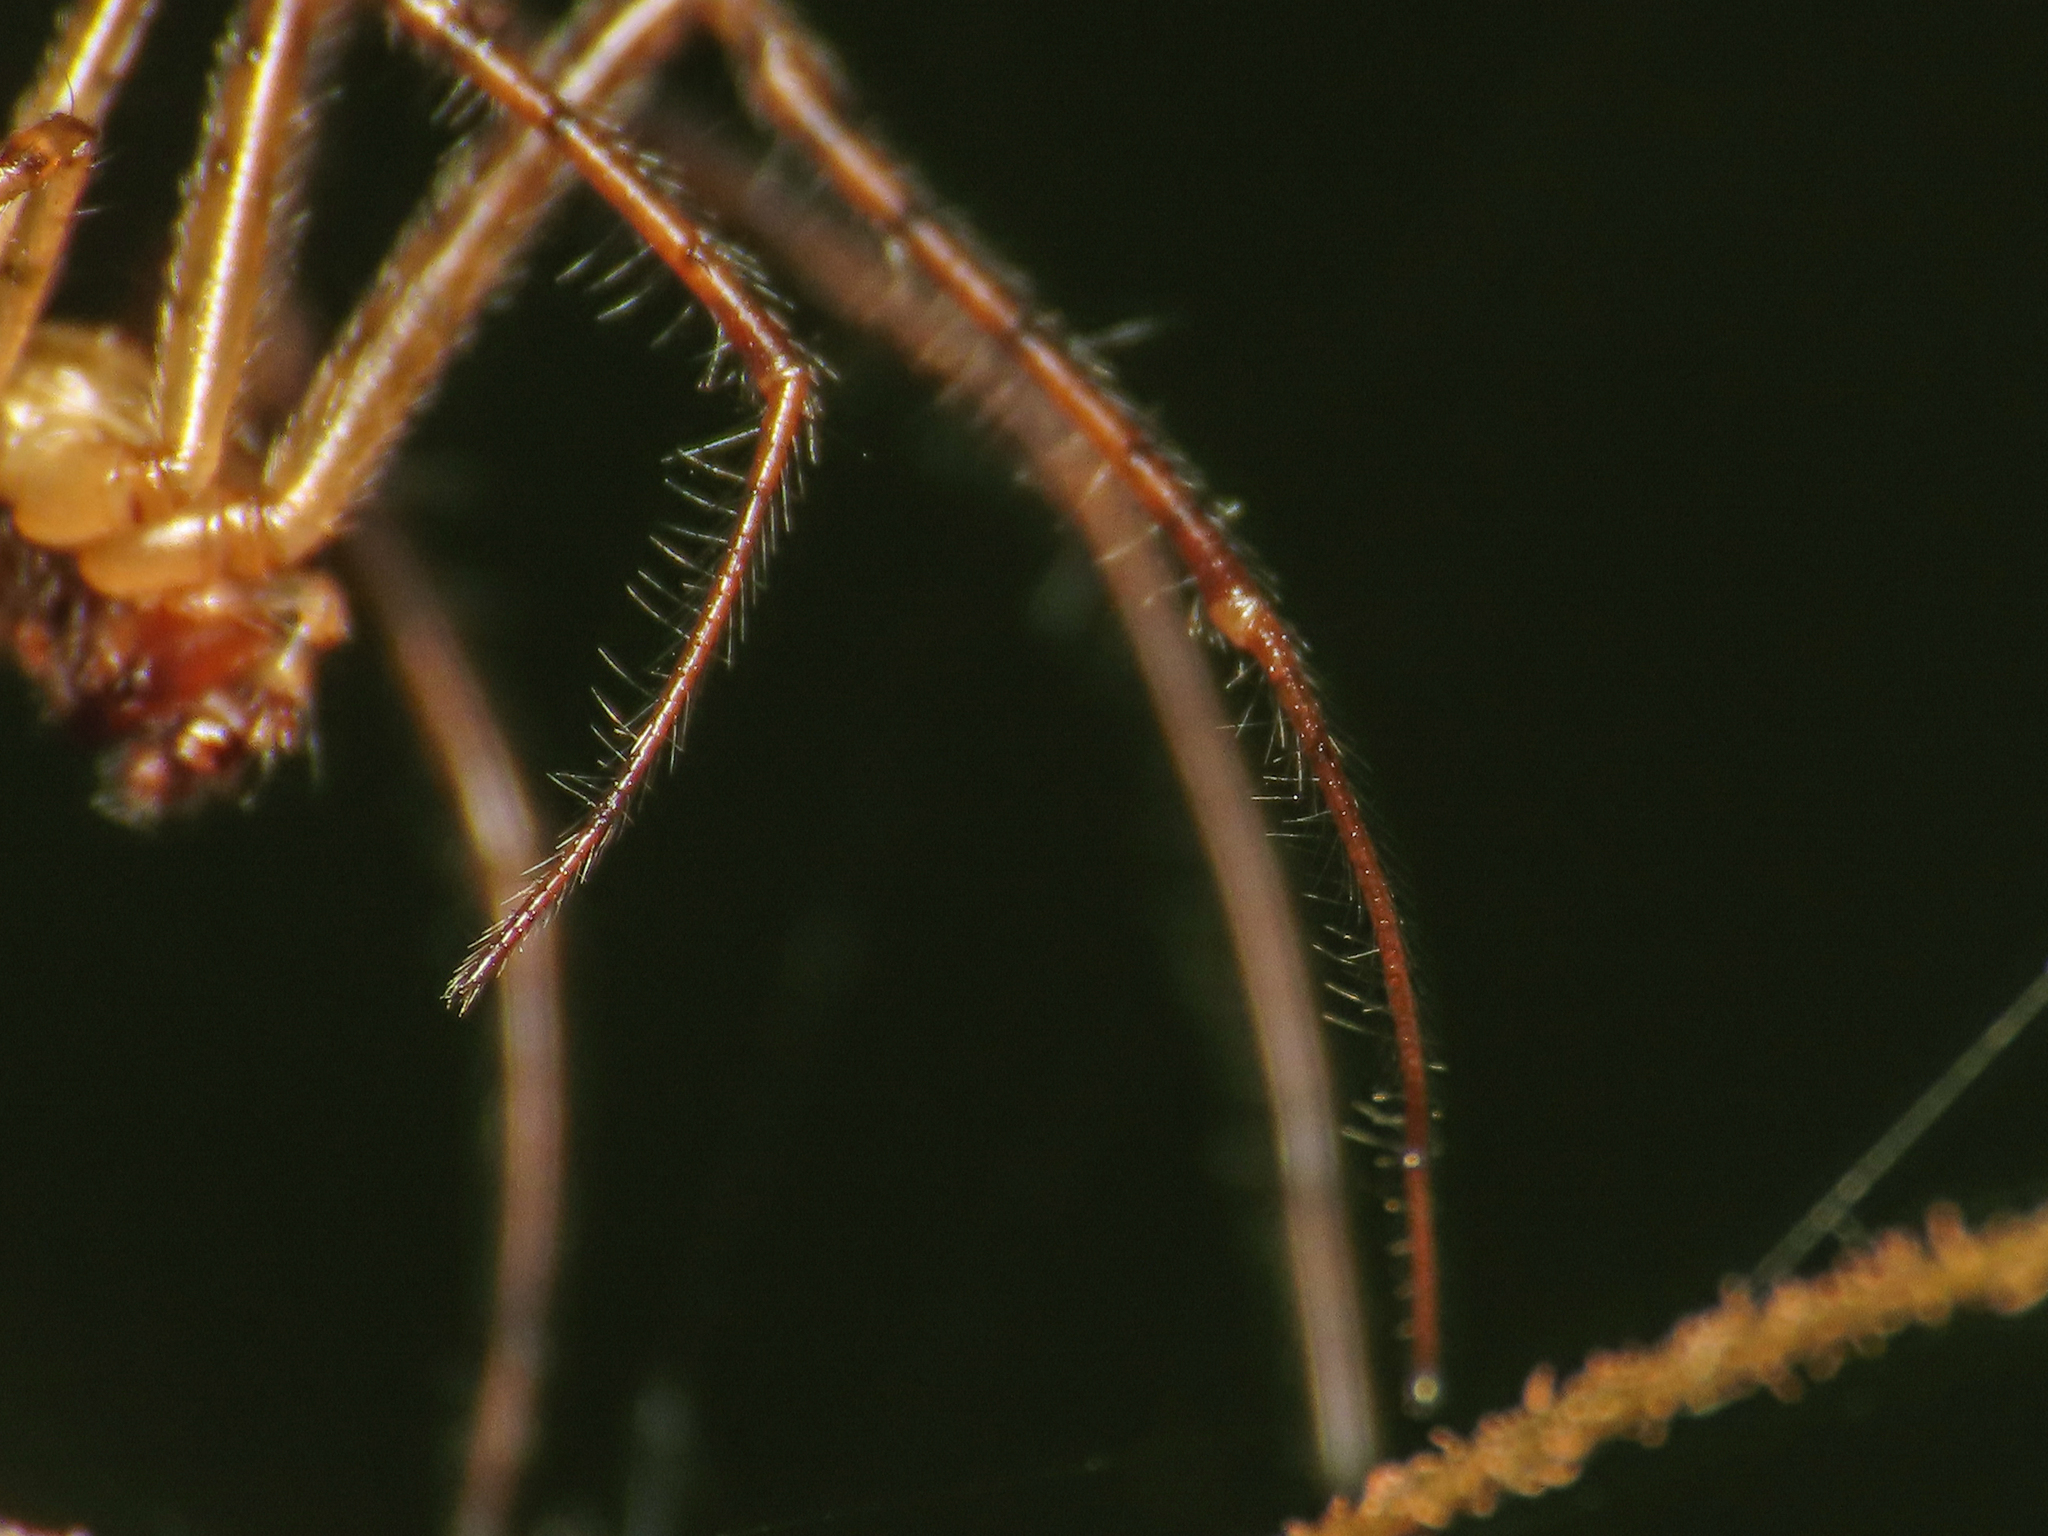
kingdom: Animalia
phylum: Arthropoda
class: Arachnida
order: Araneae
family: Tetragnathidae
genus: Metellina
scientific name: Metellina mengei
